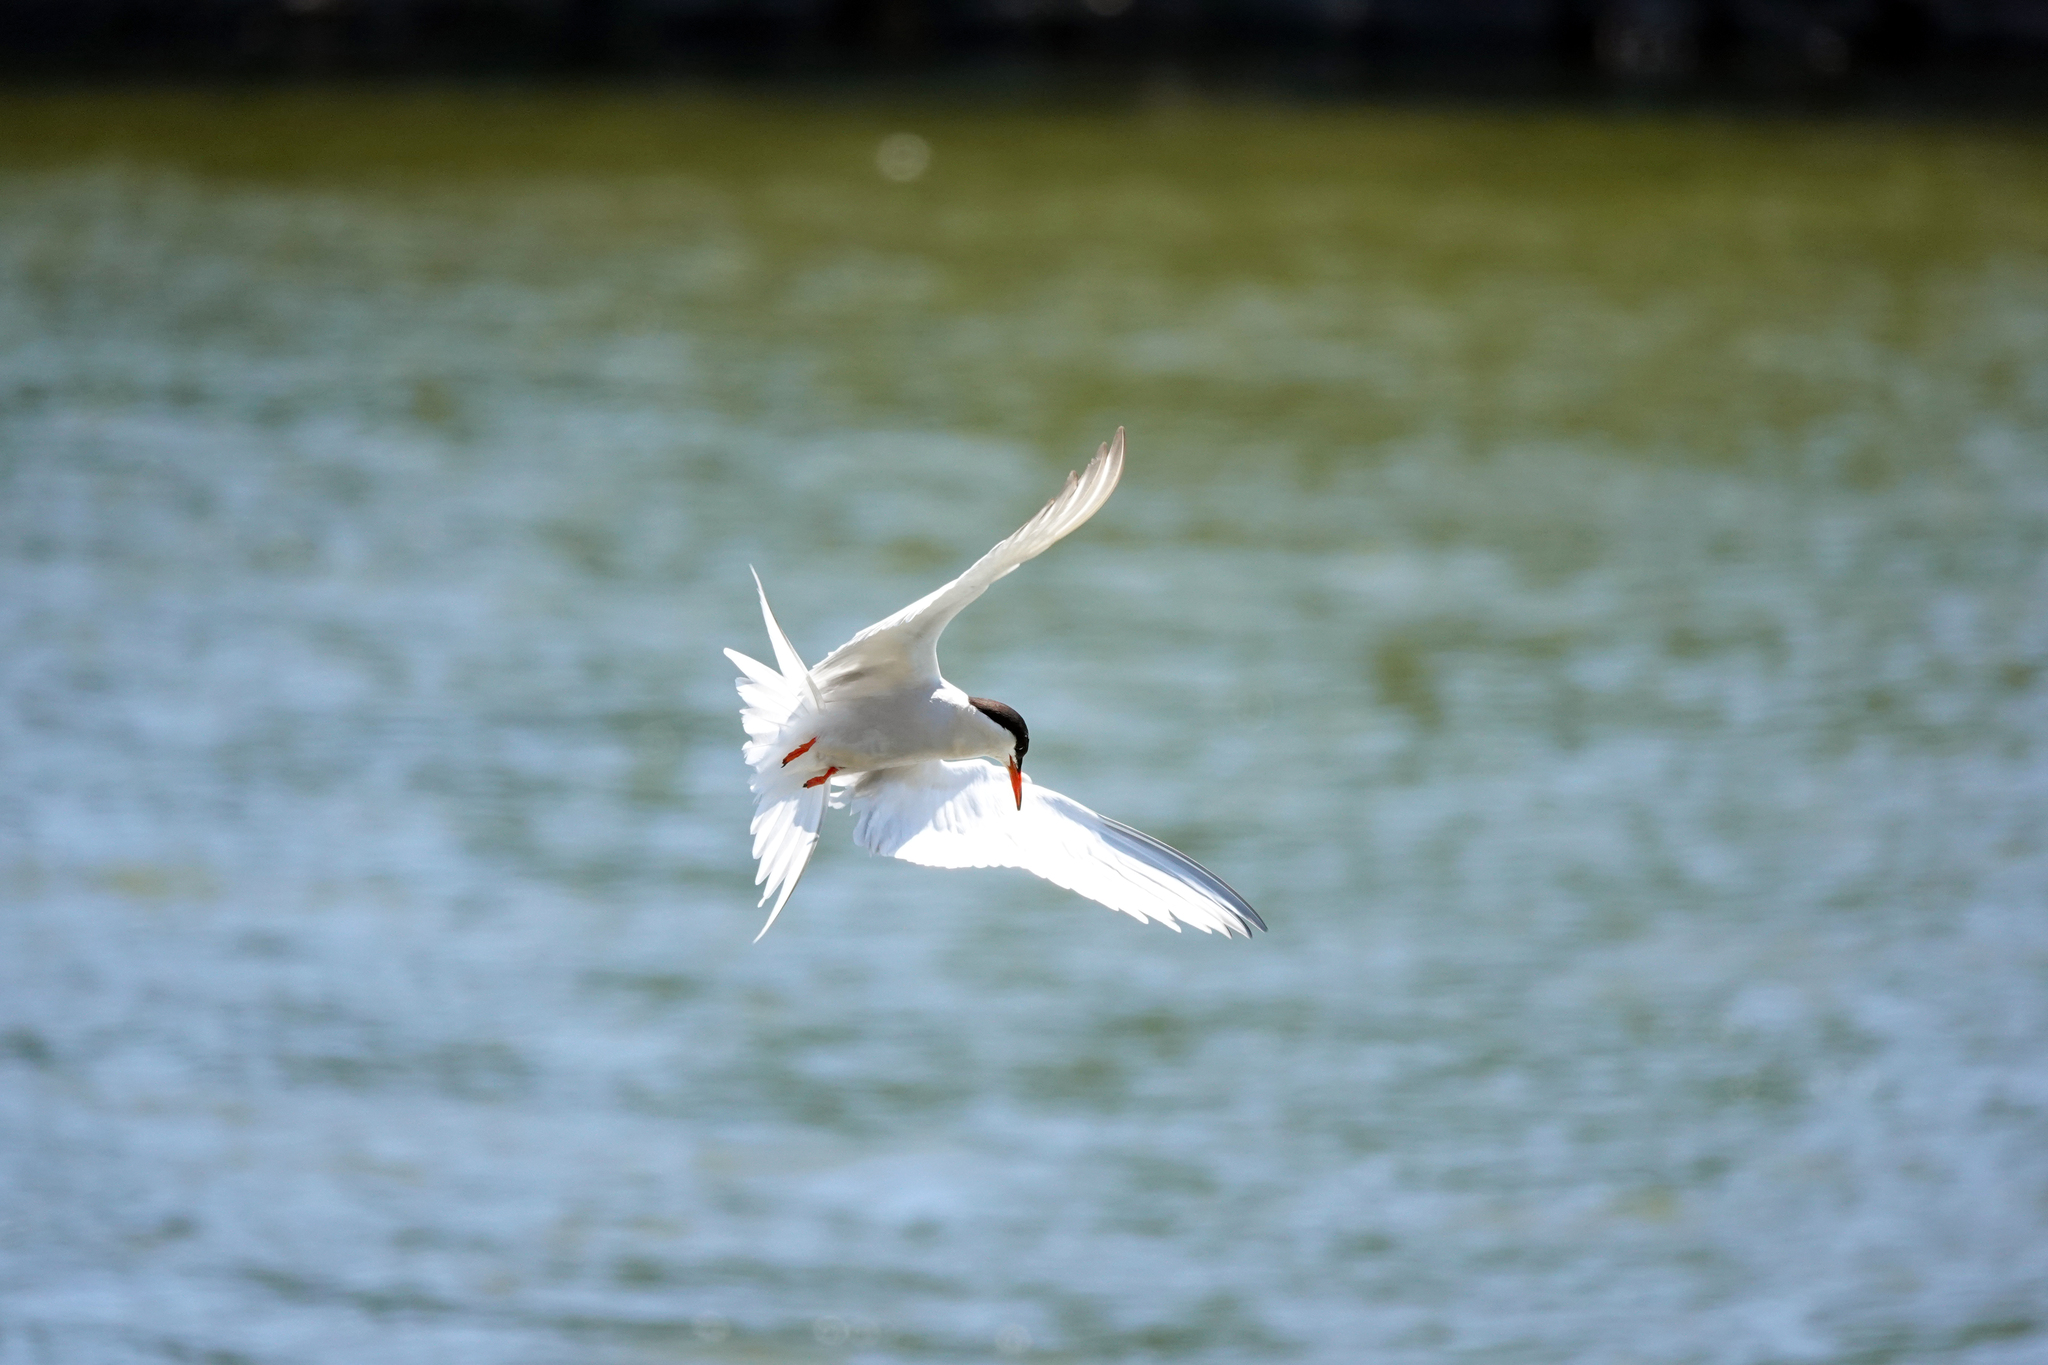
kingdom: Animalia
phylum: Chordata
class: Aves
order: Charadriiformes
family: Laridae
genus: Sterna
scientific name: Sterna hirundo
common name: Common tern
